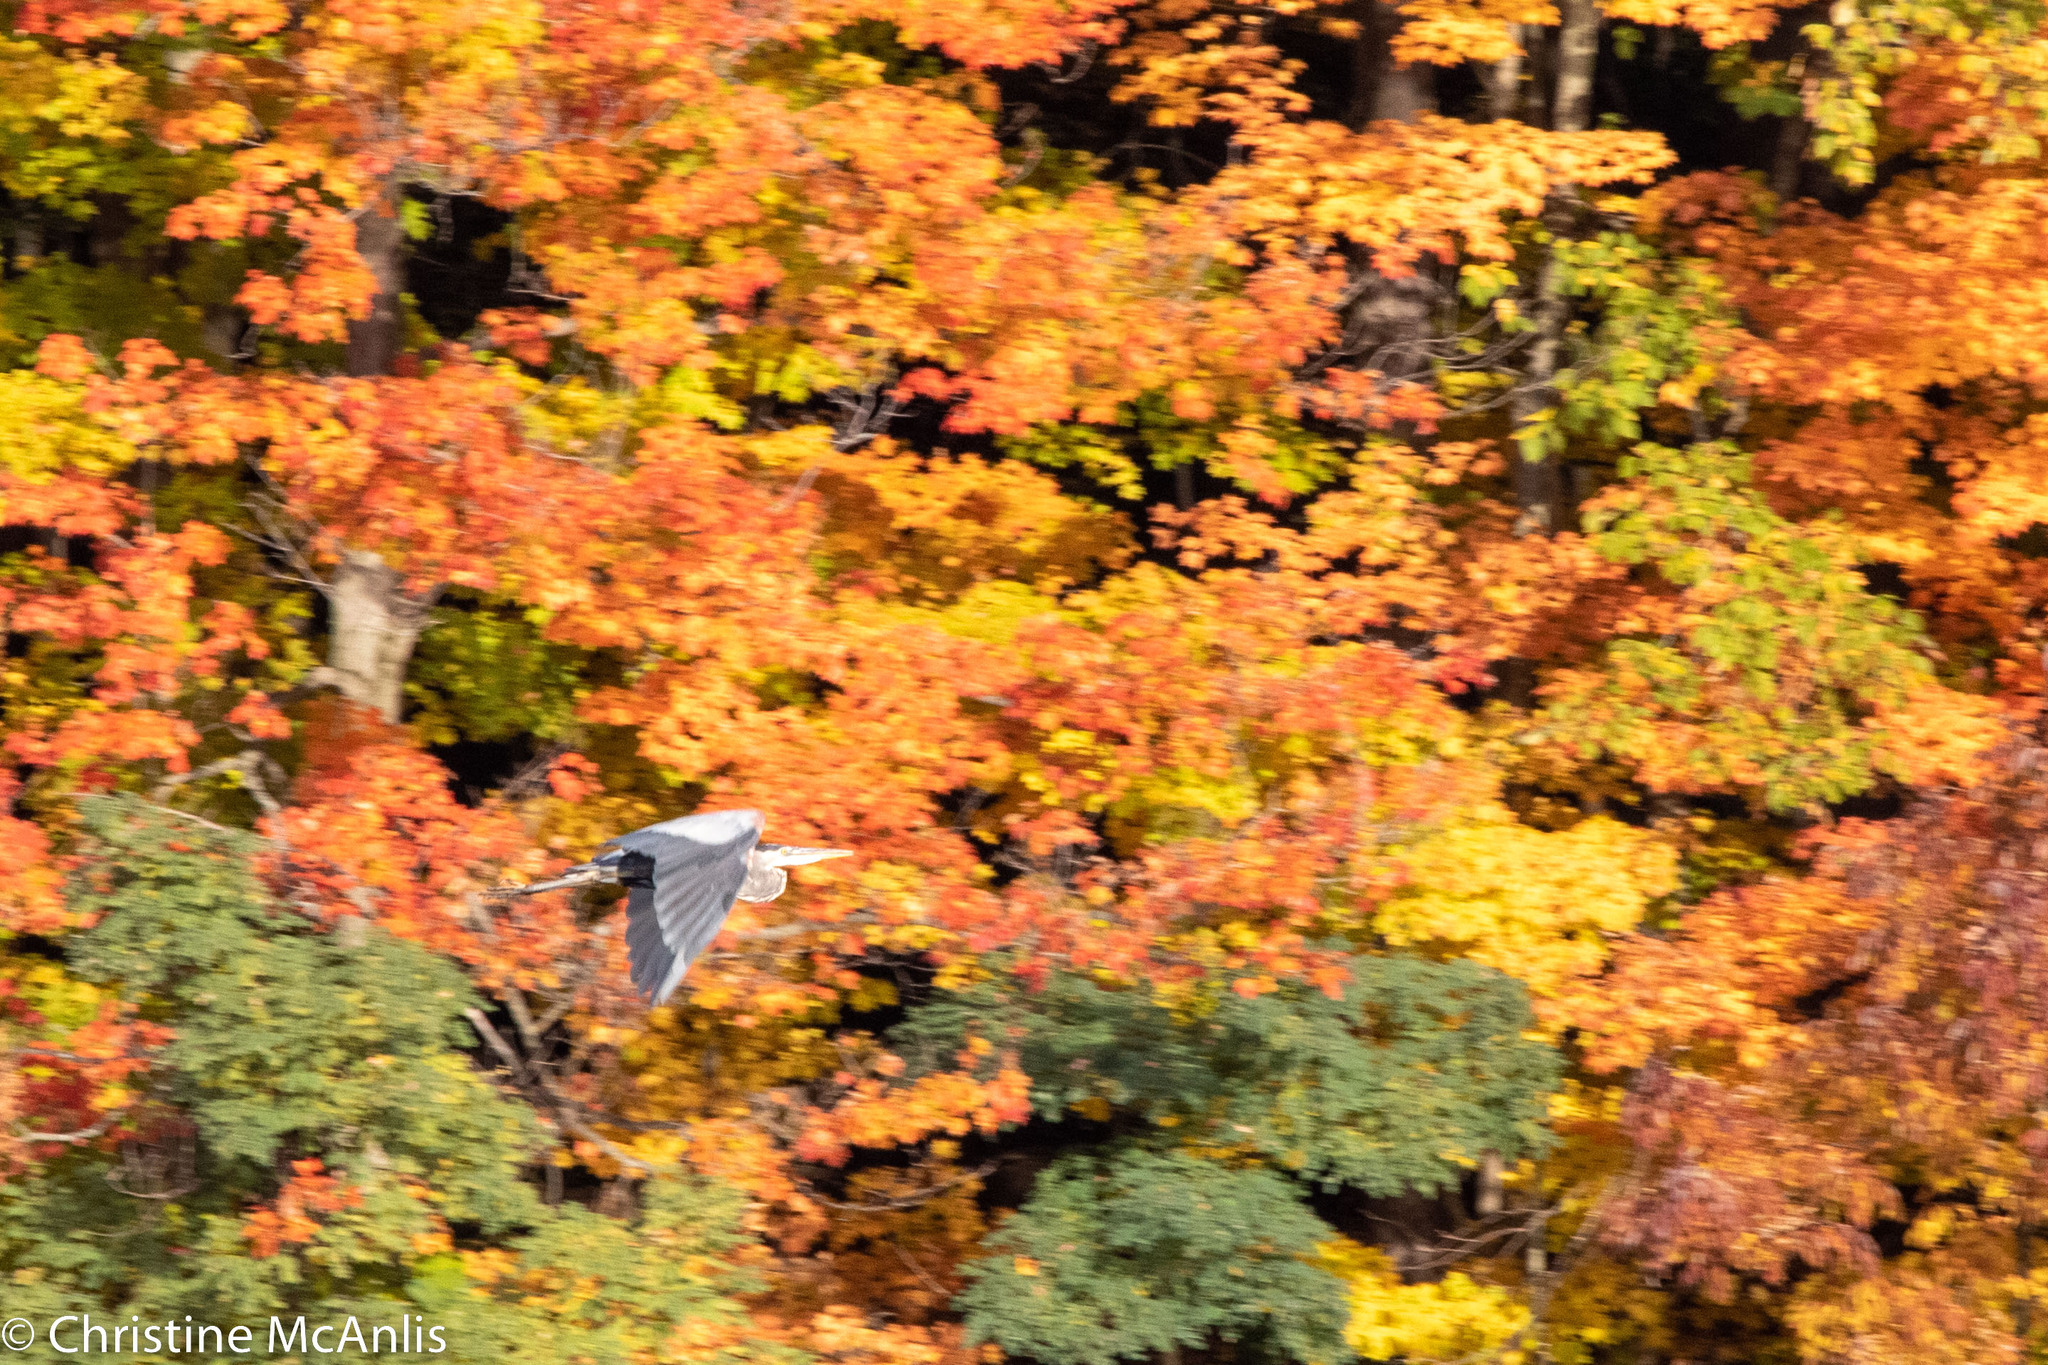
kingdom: Animalia
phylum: Chordata
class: Aves
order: Pelecaniformes
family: Ardeidae
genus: Ardea
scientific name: Ardea herodias
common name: Great blue heron
